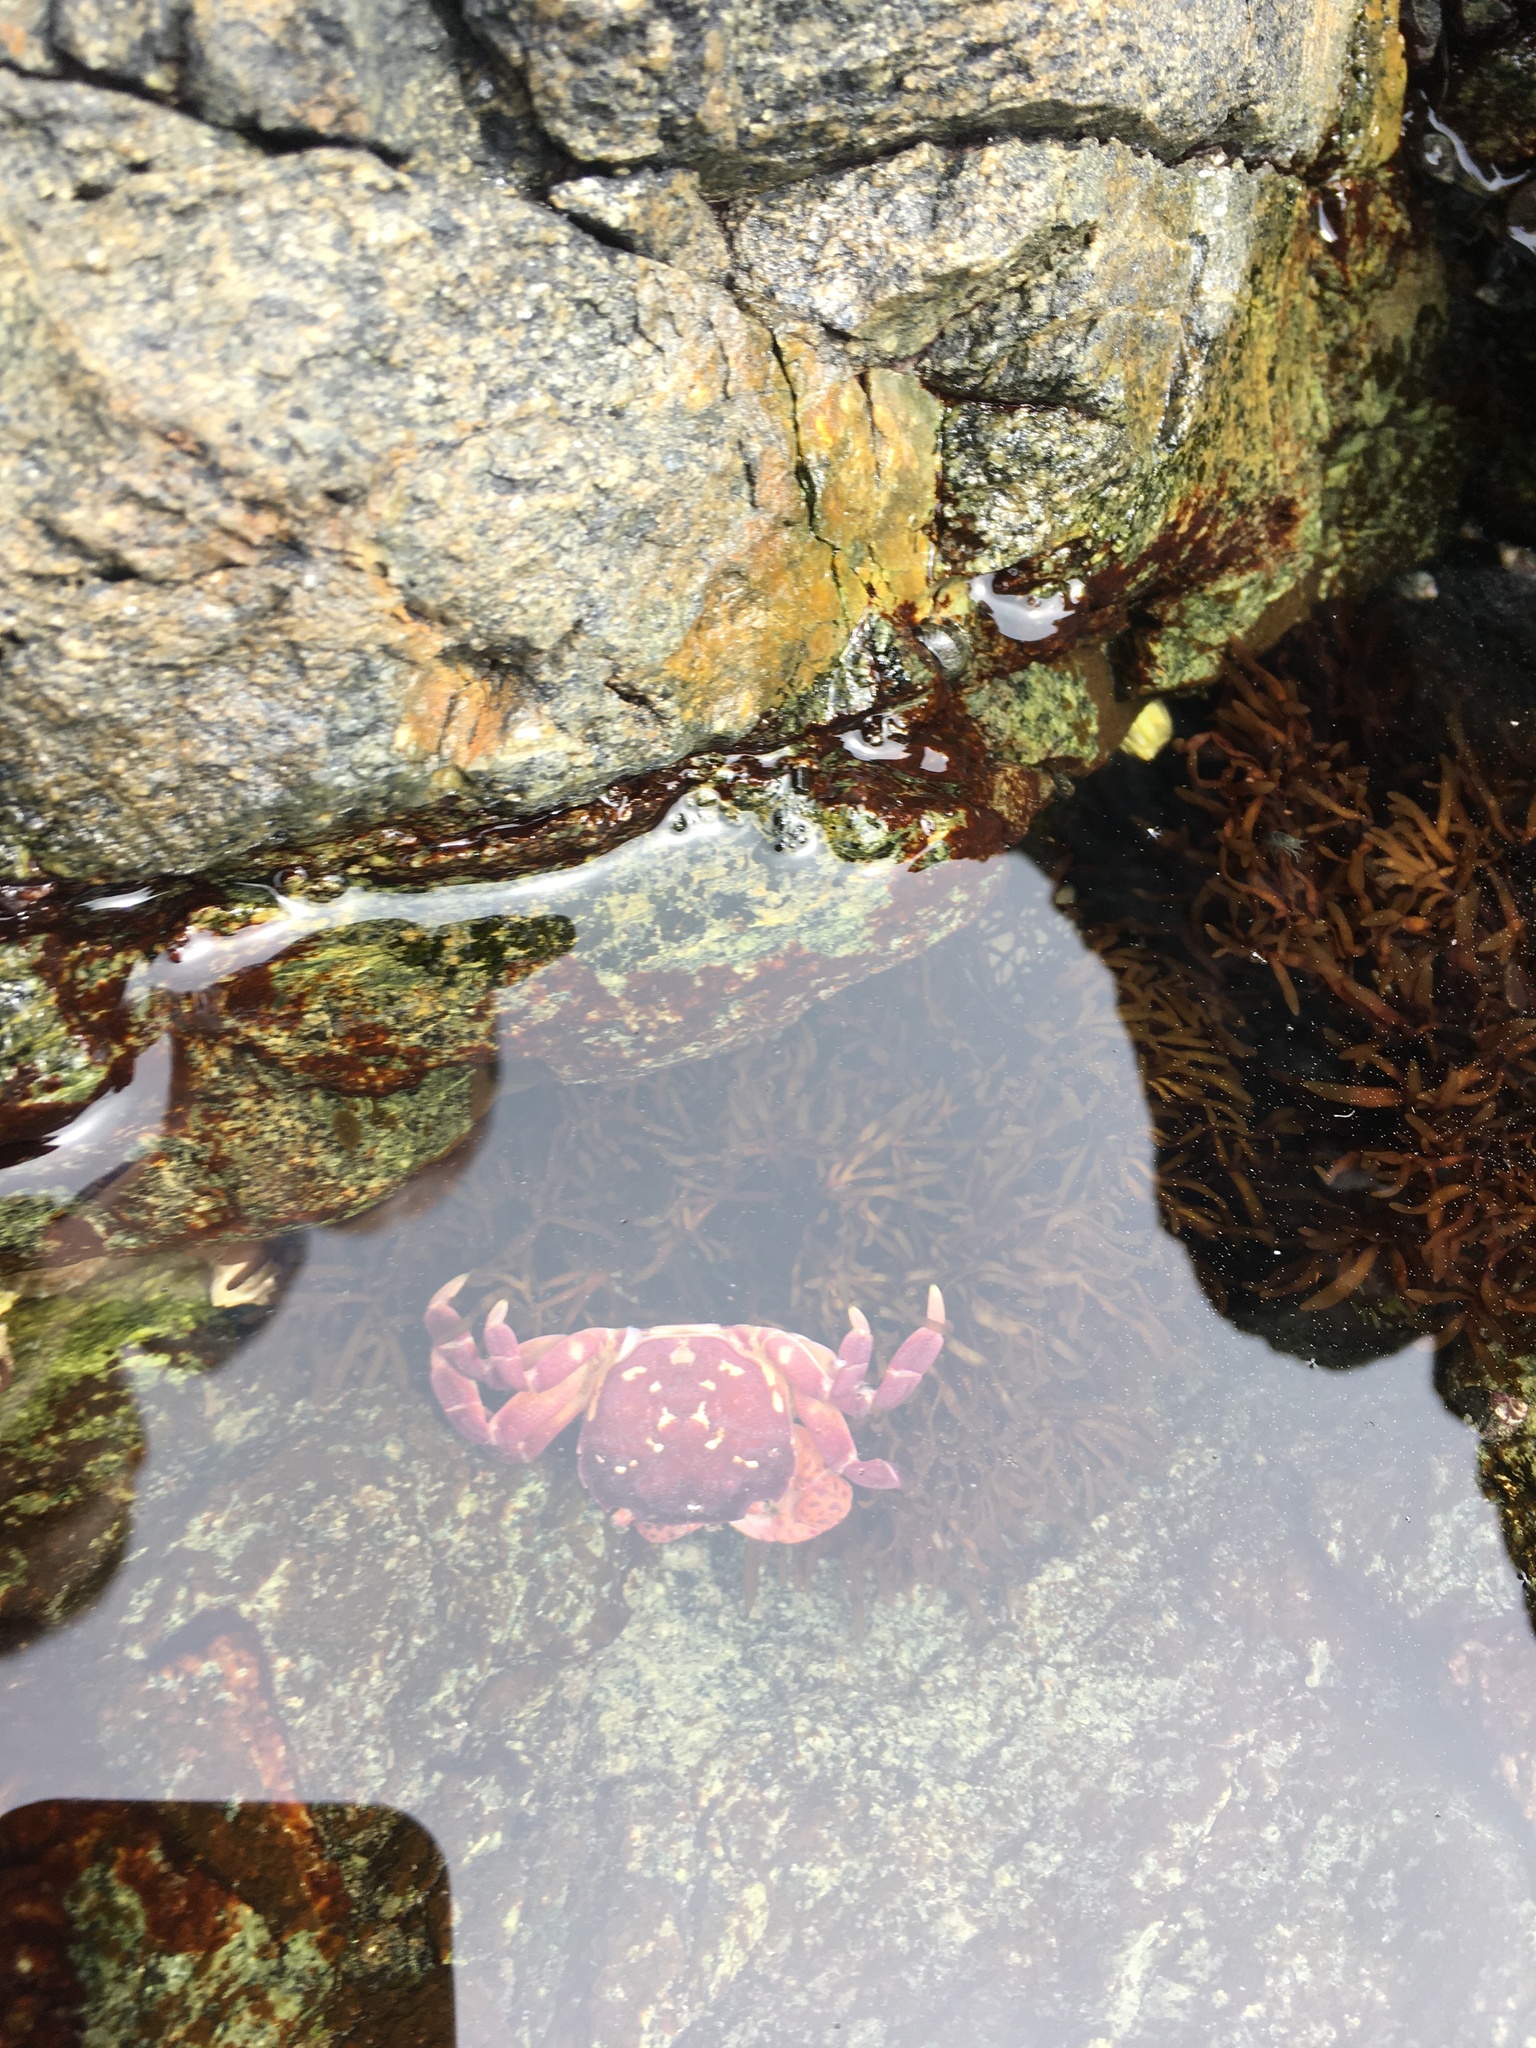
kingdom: Animalia
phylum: Arthropoda
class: Malacostraca
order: Decapoda
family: Varunidae
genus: Hemigrapsus
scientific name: Hemigrapsus nudus
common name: Purple shore crab
